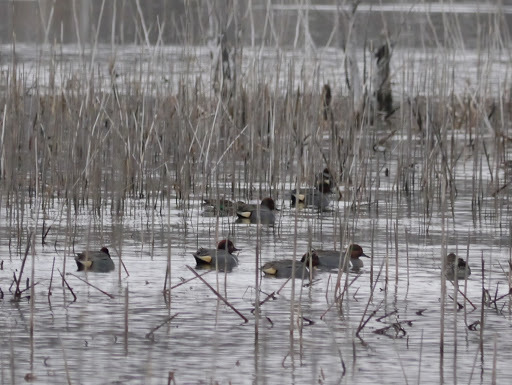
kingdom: Animalia
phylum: Chordata
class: Aves
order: Anseriformes
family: Anatidae
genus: Anas
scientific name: Anas crecca
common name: Eurasian teal
